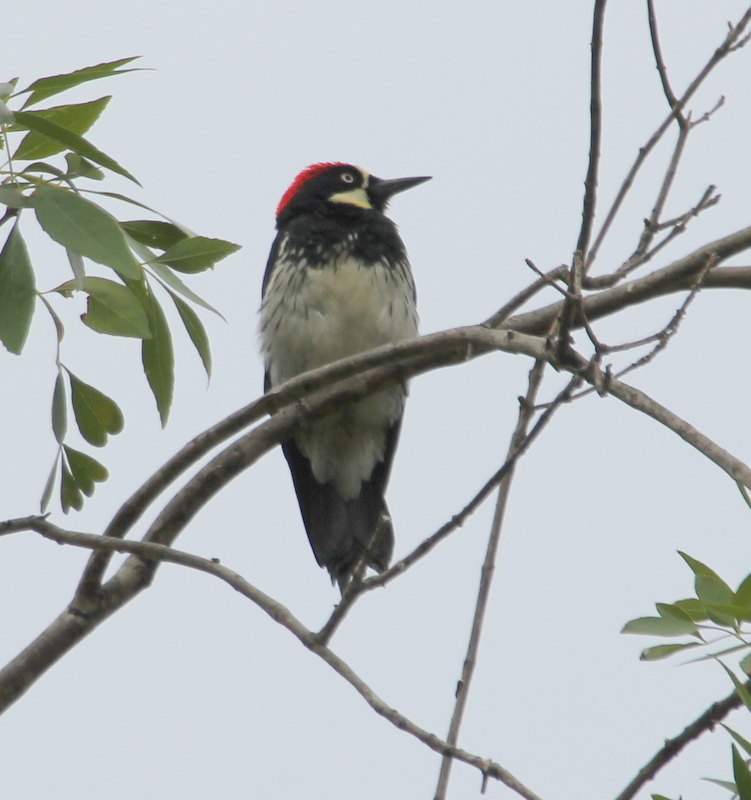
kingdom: Animalia
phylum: Chordata
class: Aves
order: Piciformes
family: Picidae
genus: Melanerpes
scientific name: Melanerpes formicivorus
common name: Acorn woodpecker
